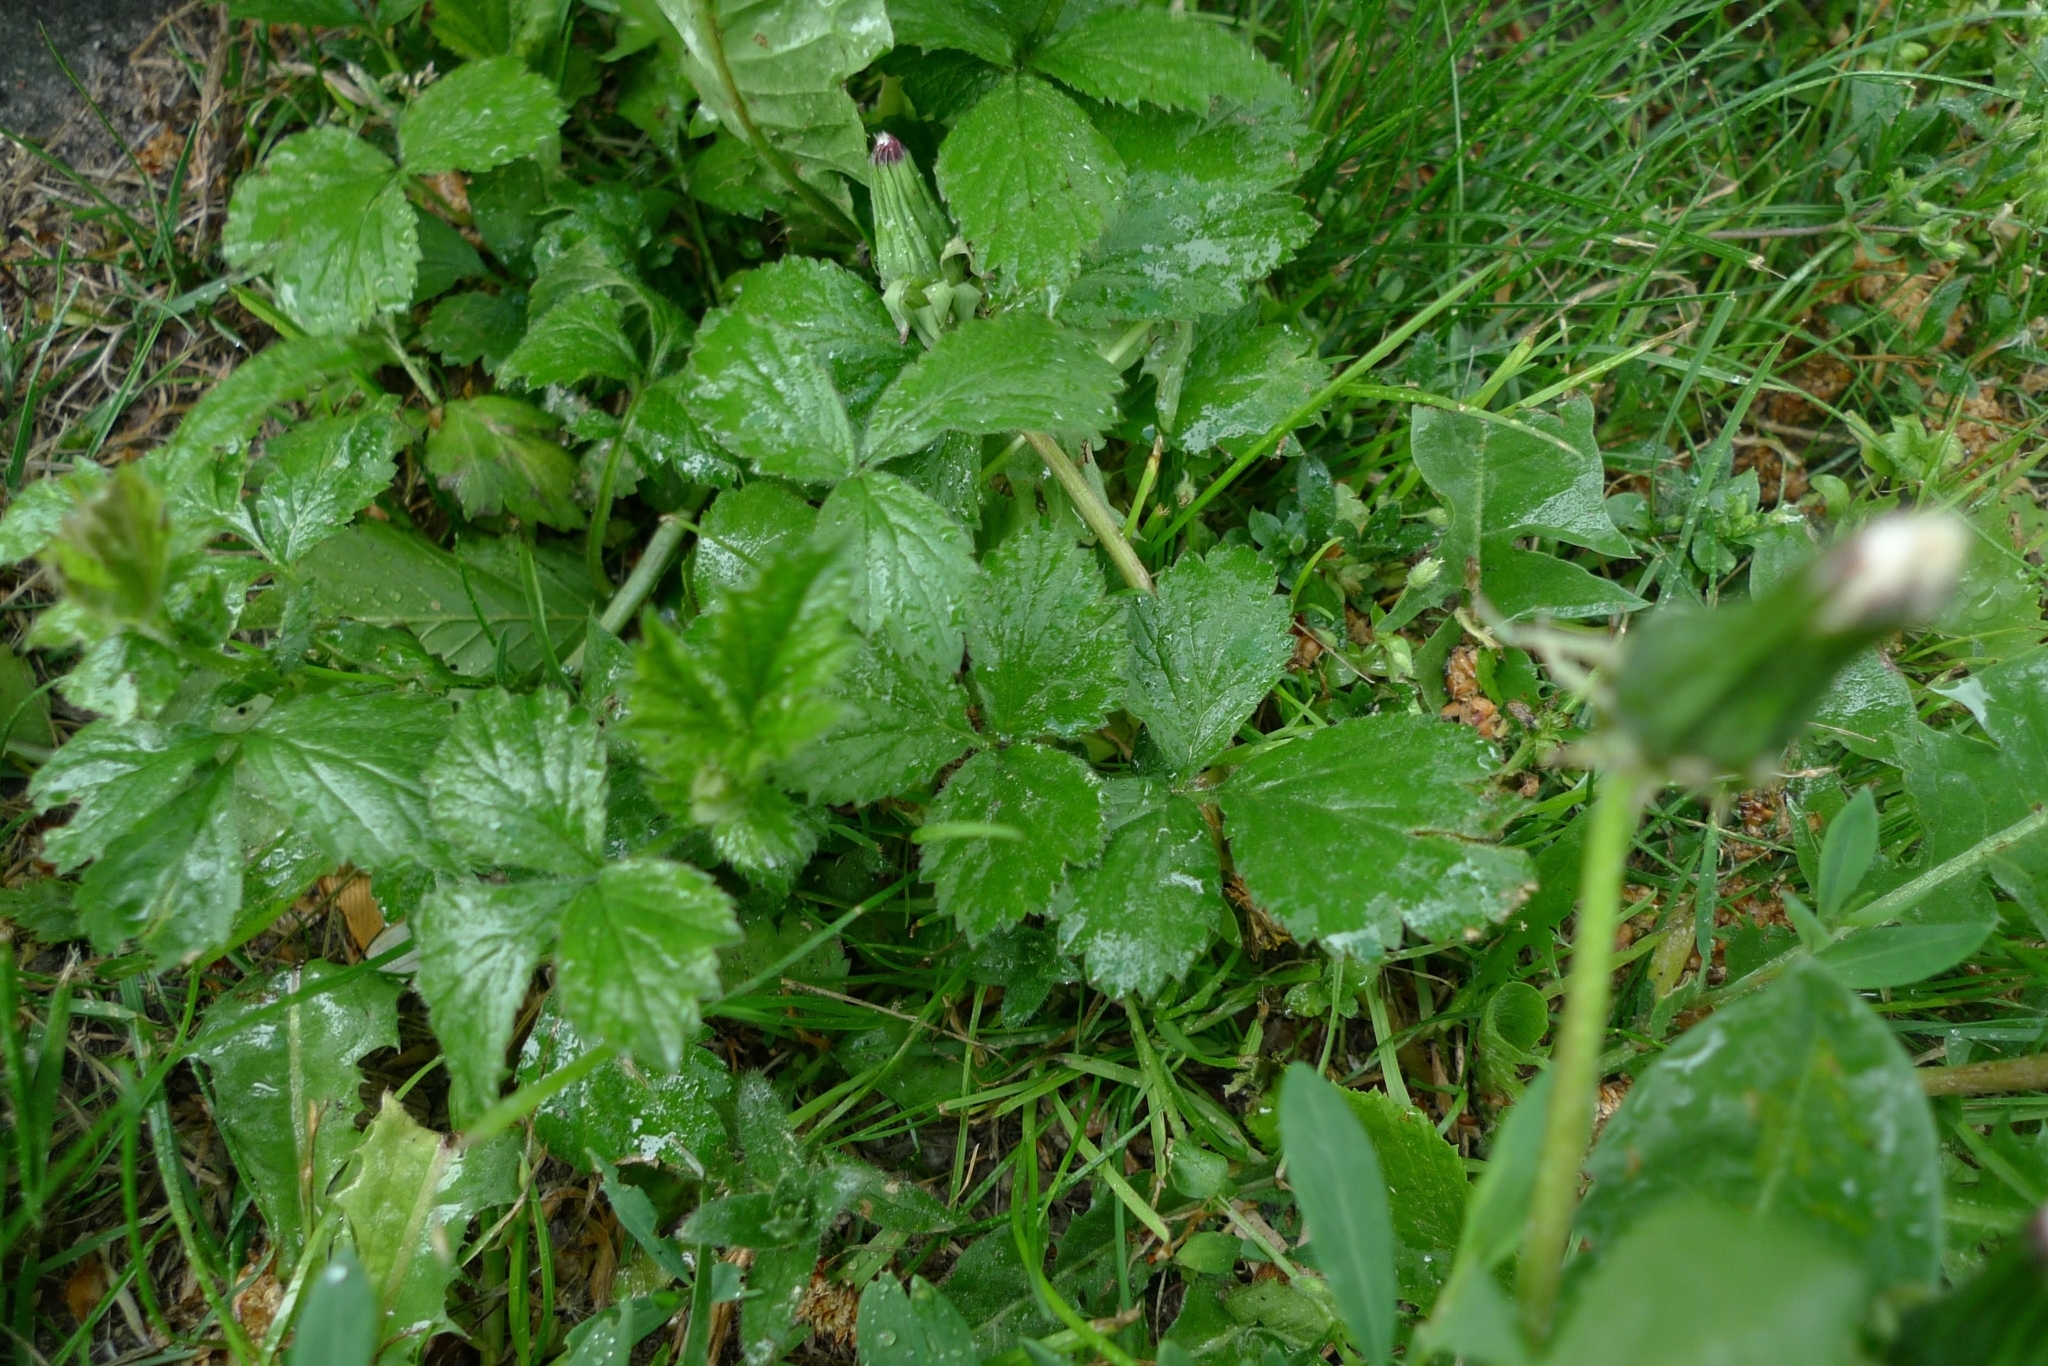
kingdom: Plantae
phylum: Tracheophyta
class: Magnoliopsida
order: Rosales
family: Rosaceae
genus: Geum
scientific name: Geum urbanum
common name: Wood avens
